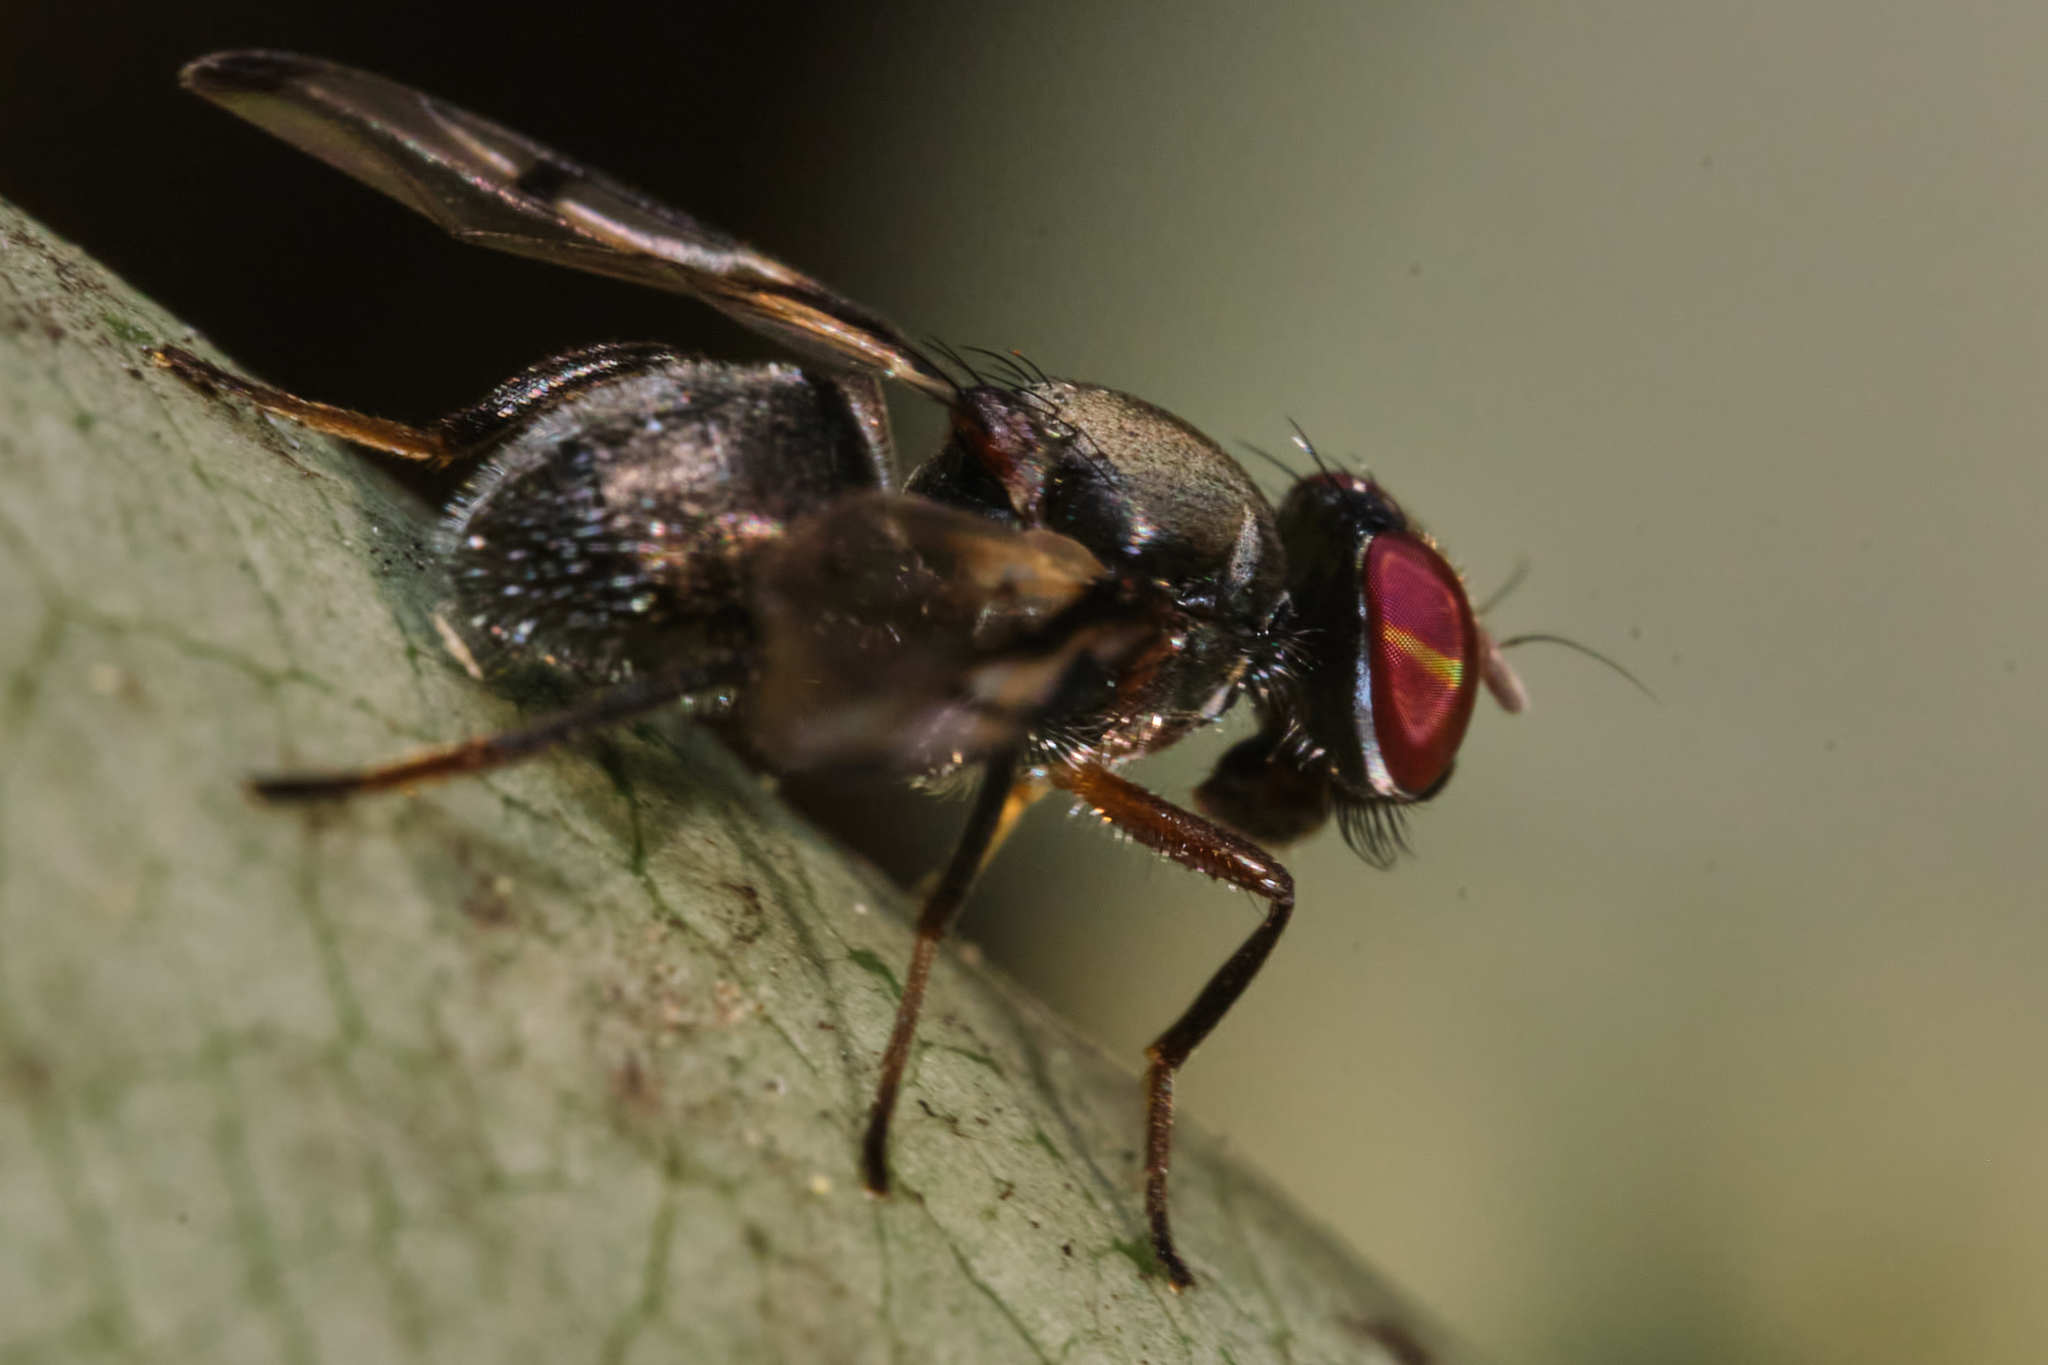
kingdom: Animalia
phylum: Arthropoda
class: Insecta
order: Diptera
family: Platystomatidae
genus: Pogonortalis
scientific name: Pogonortalis doclea
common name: Boatman fly
